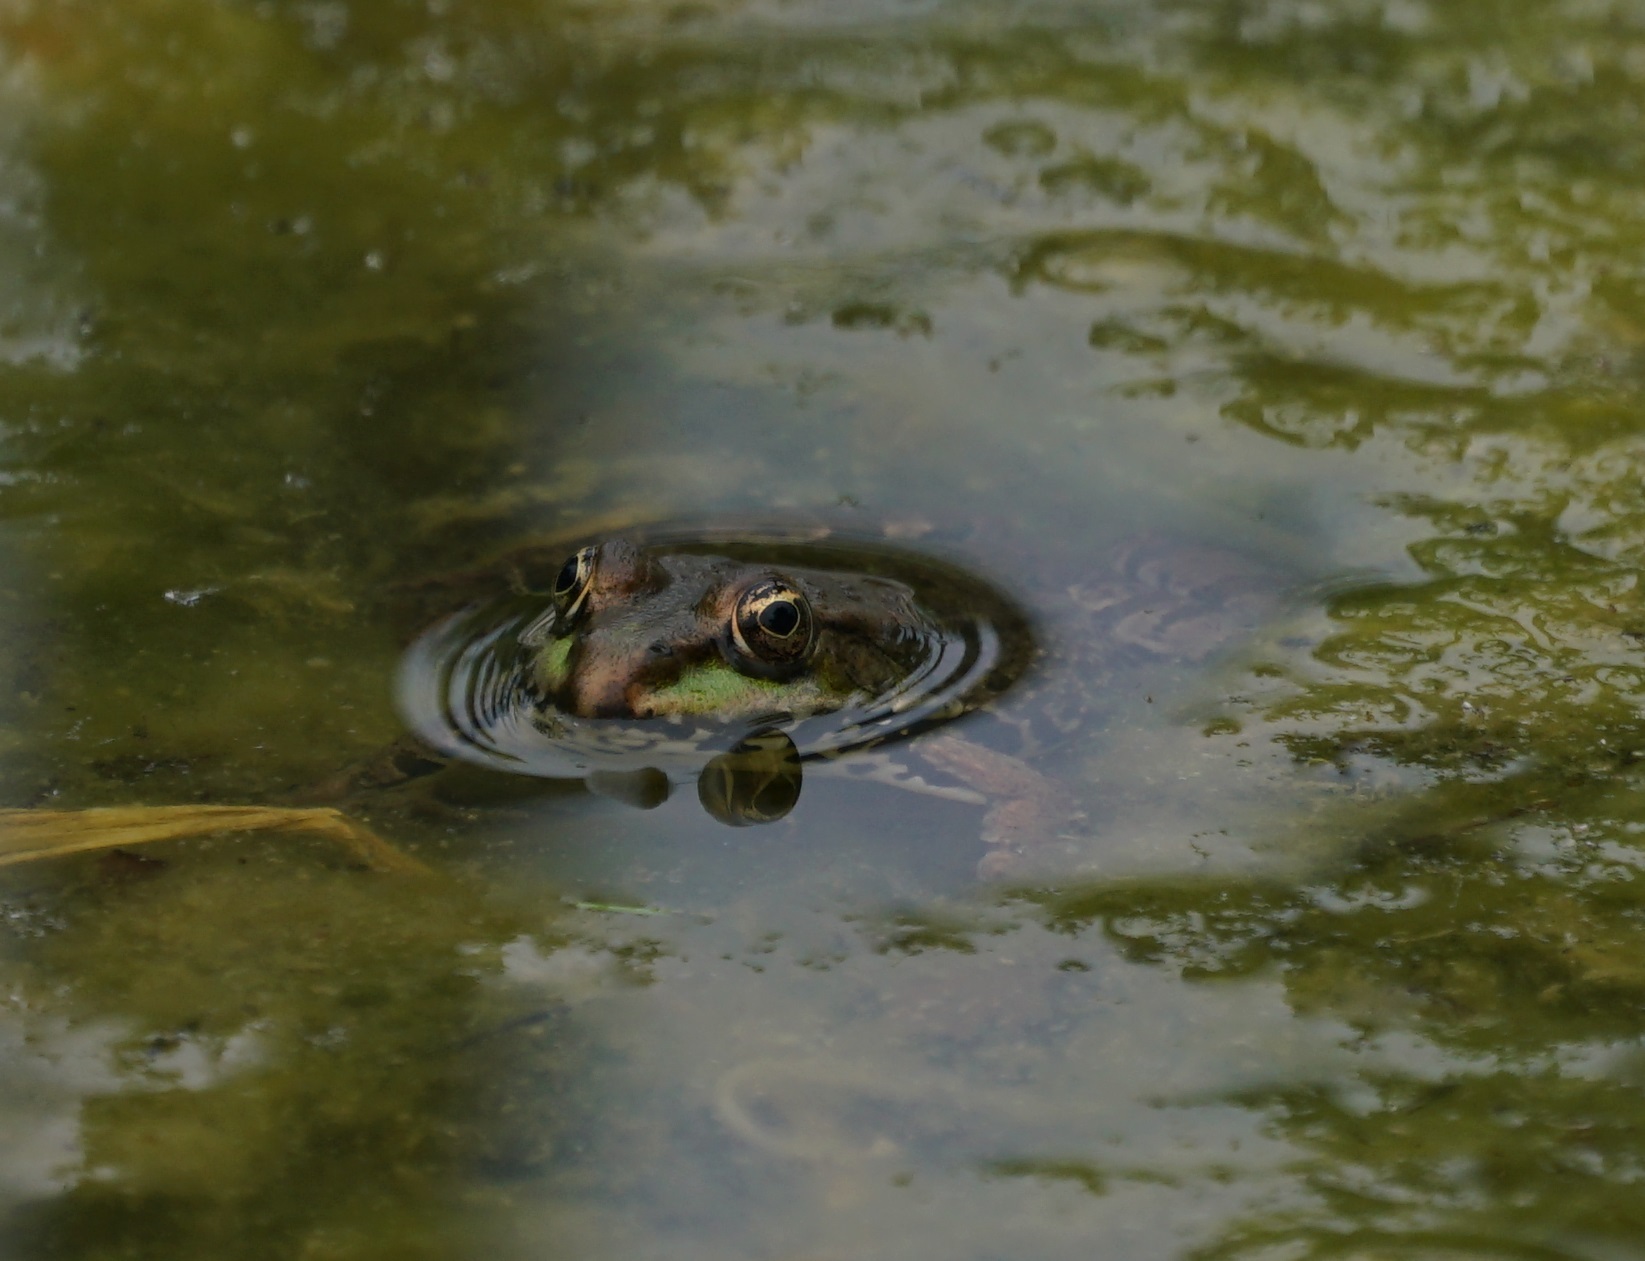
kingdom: Animalia
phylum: Chordata
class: Amphibia
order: Anura
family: Ranidae
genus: Pelophylax
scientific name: Pelophylax
